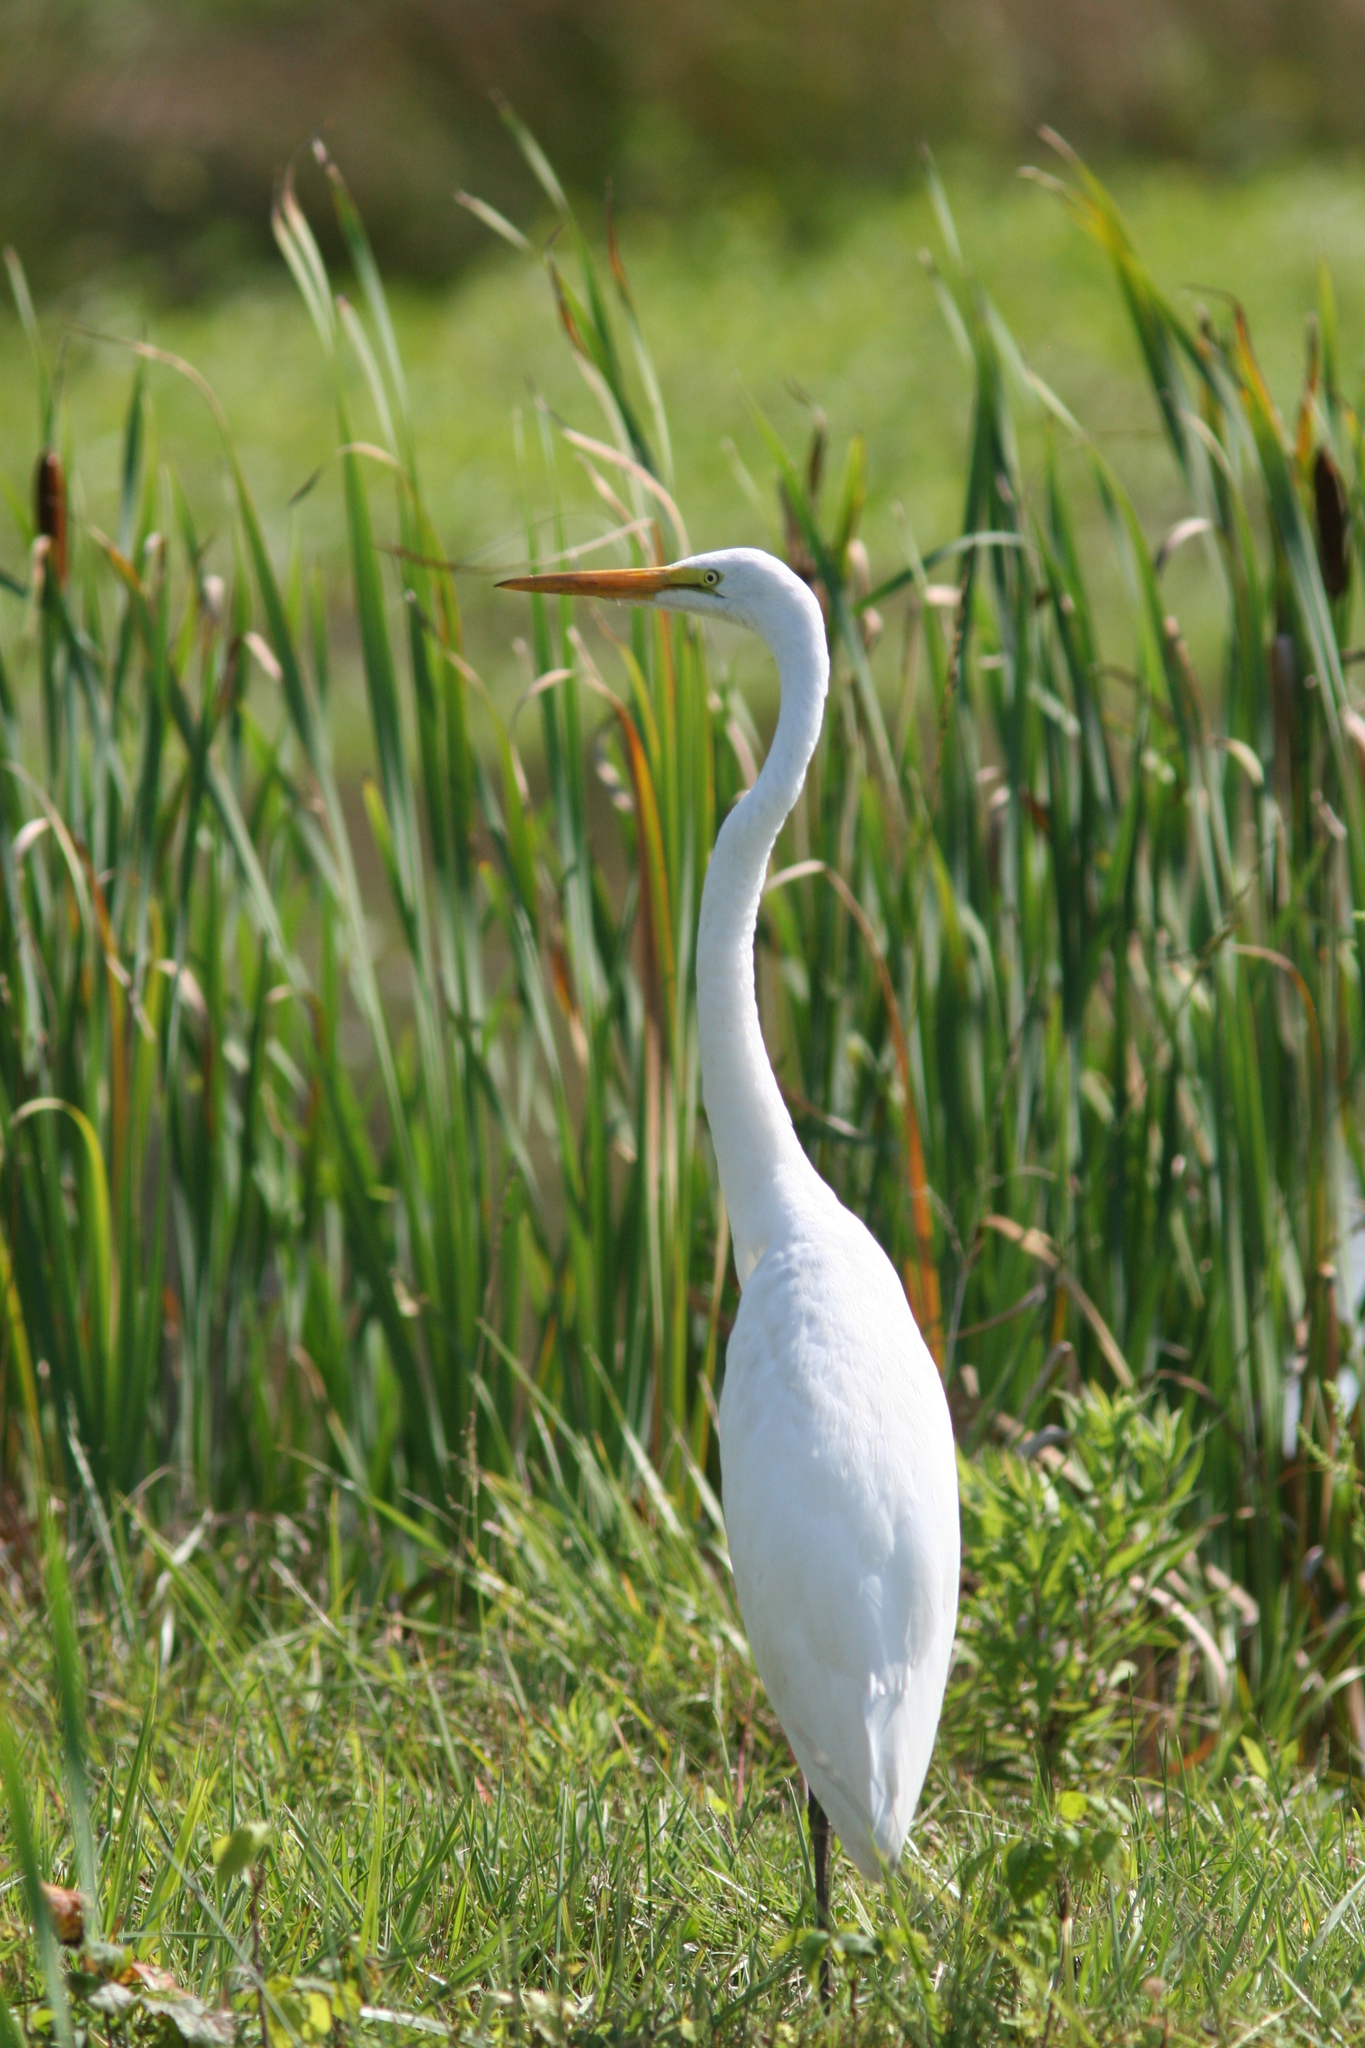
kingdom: Animalia
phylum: Chordata
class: Aves
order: Pelecaniformes
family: Ardeidae
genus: Ardea
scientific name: Ardea alba
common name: Great egret
